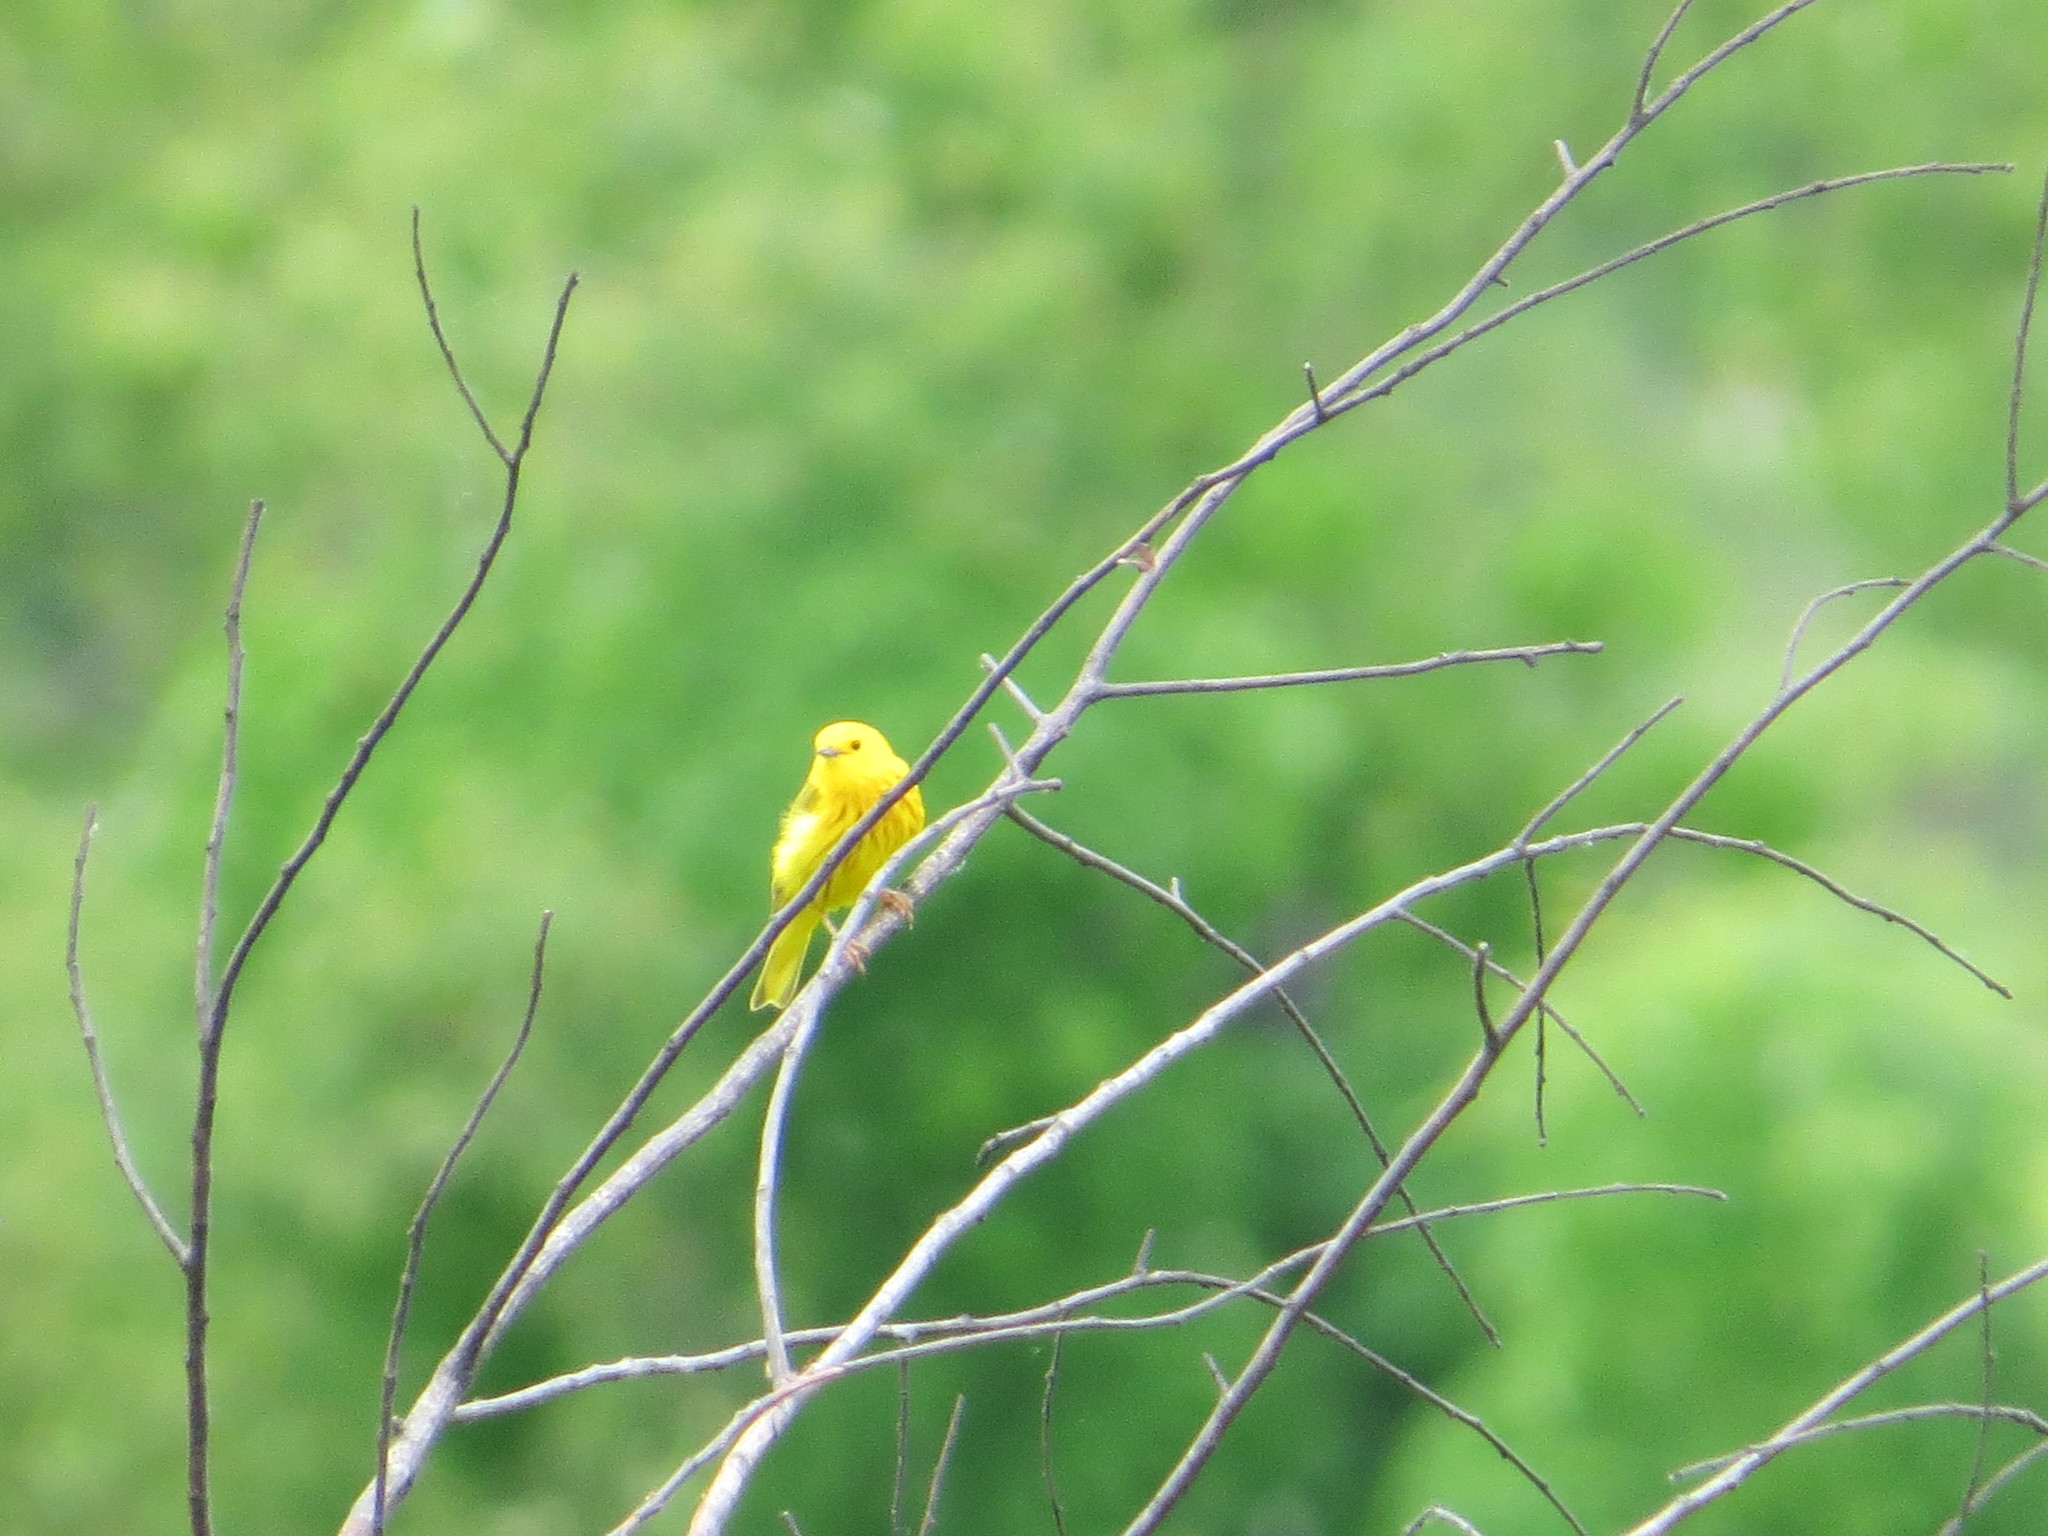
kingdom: Animalia
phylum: Chordata
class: Aves
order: Passeriformes
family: Parulidae
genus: Setophaga
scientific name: Setophaga petechia
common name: Yellow warbler
